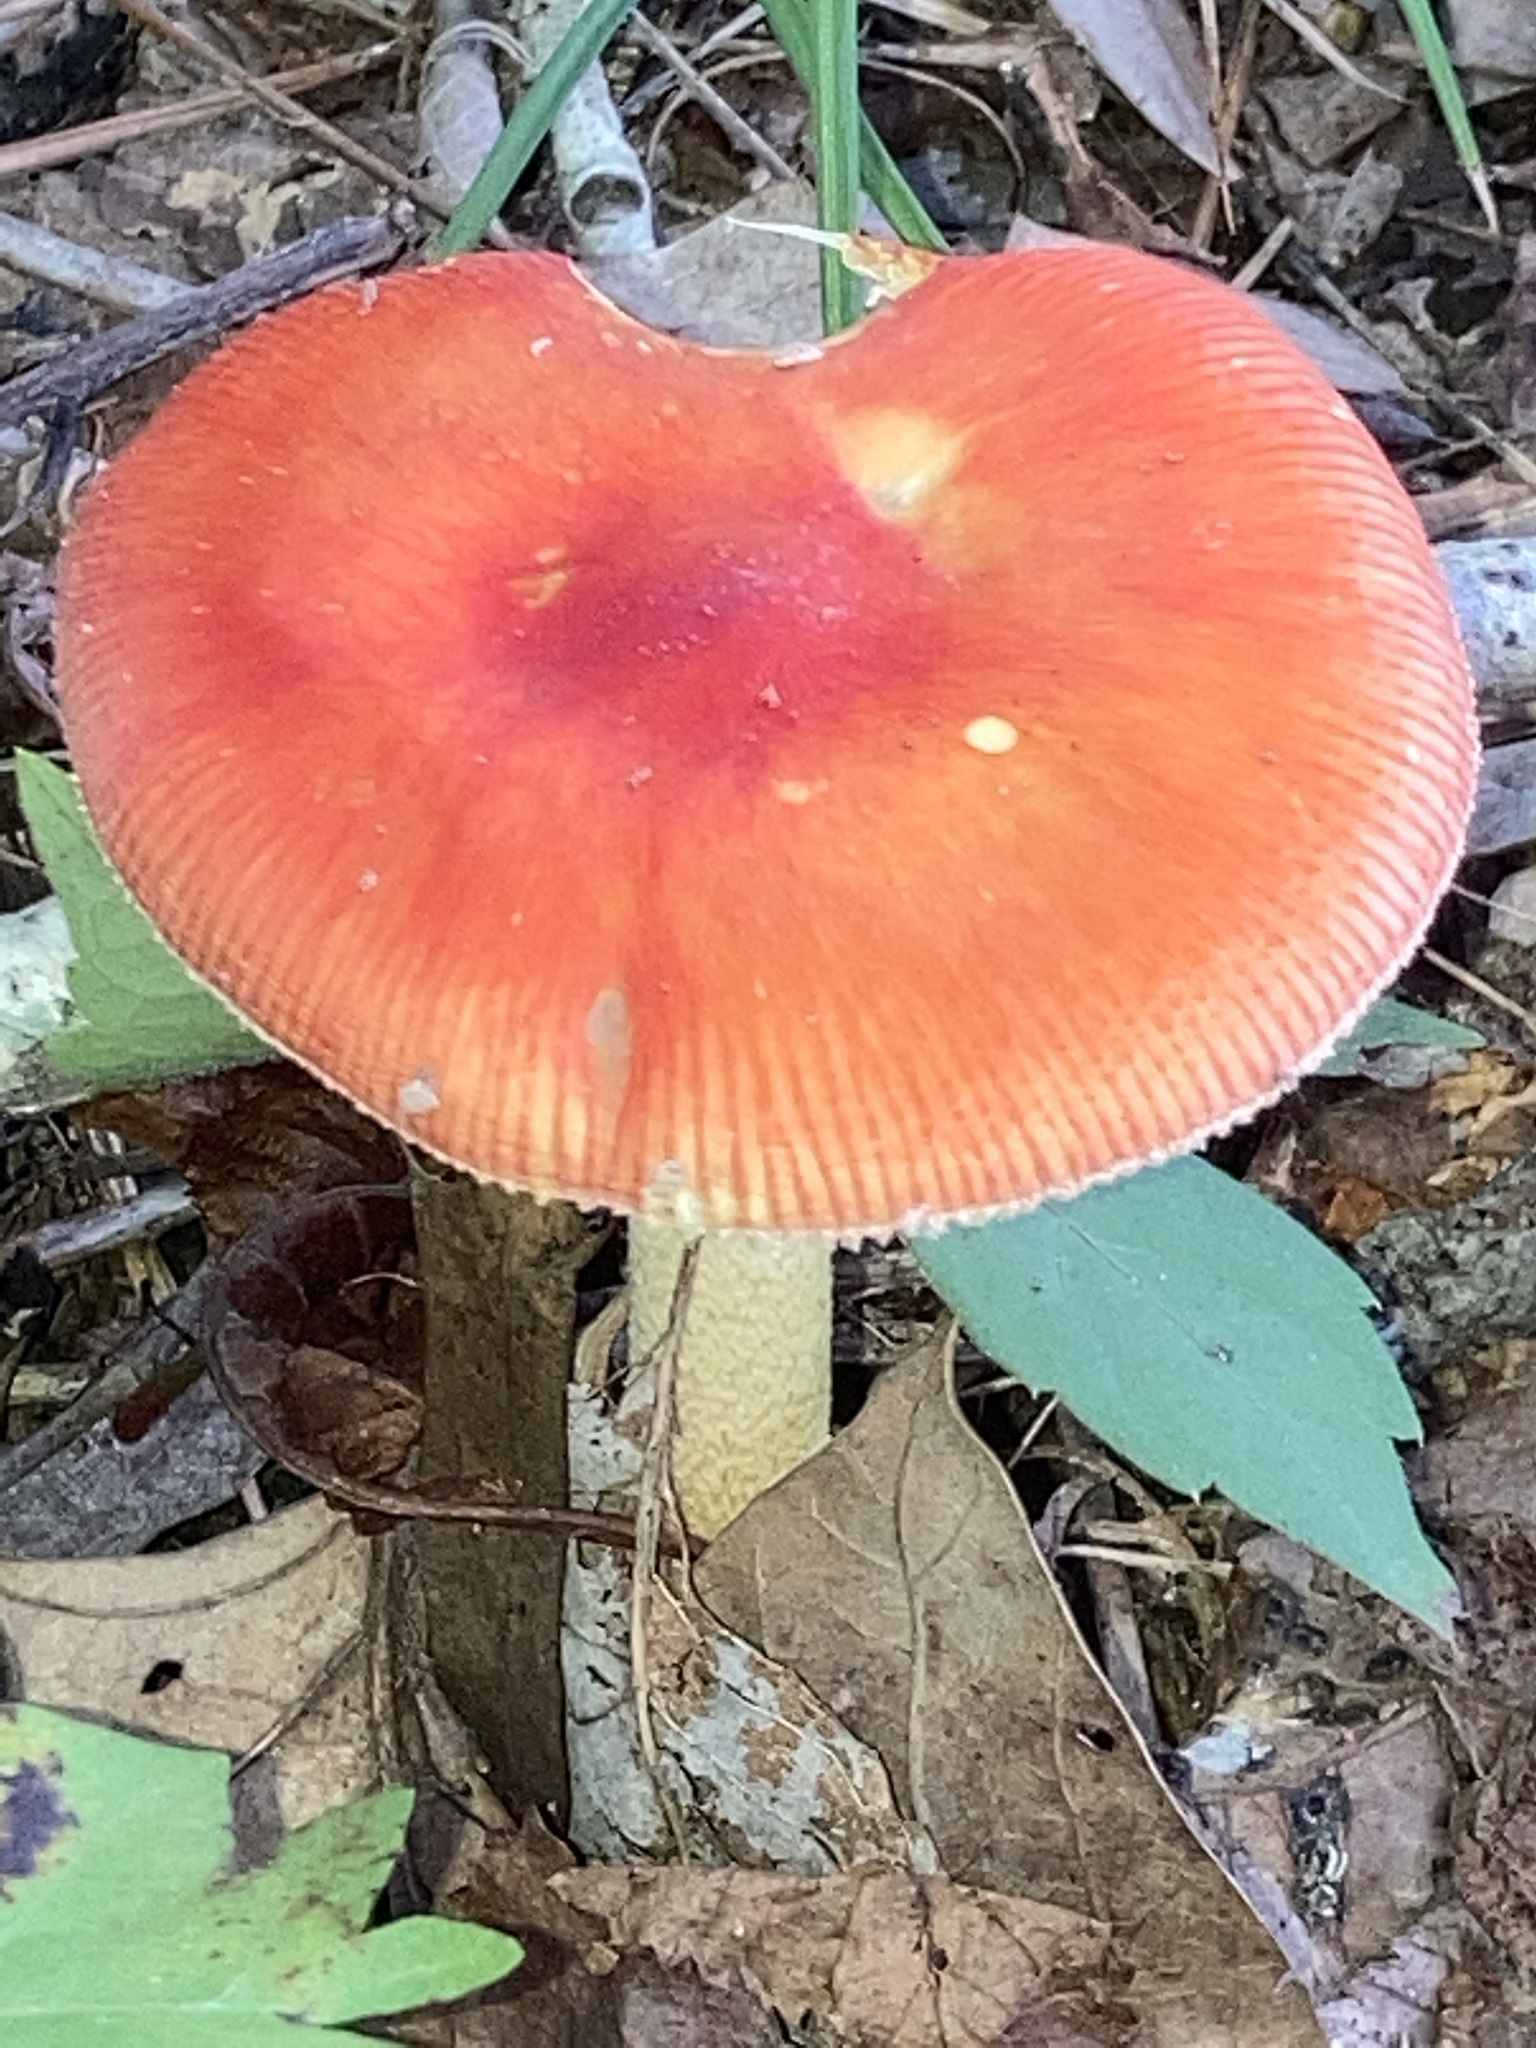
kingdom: Fungi
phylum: Basidiomycota
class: Agaricomycetes
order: Agaricales
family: Amanitaceae
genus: Amanita
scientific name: Amanita parcivolvata
